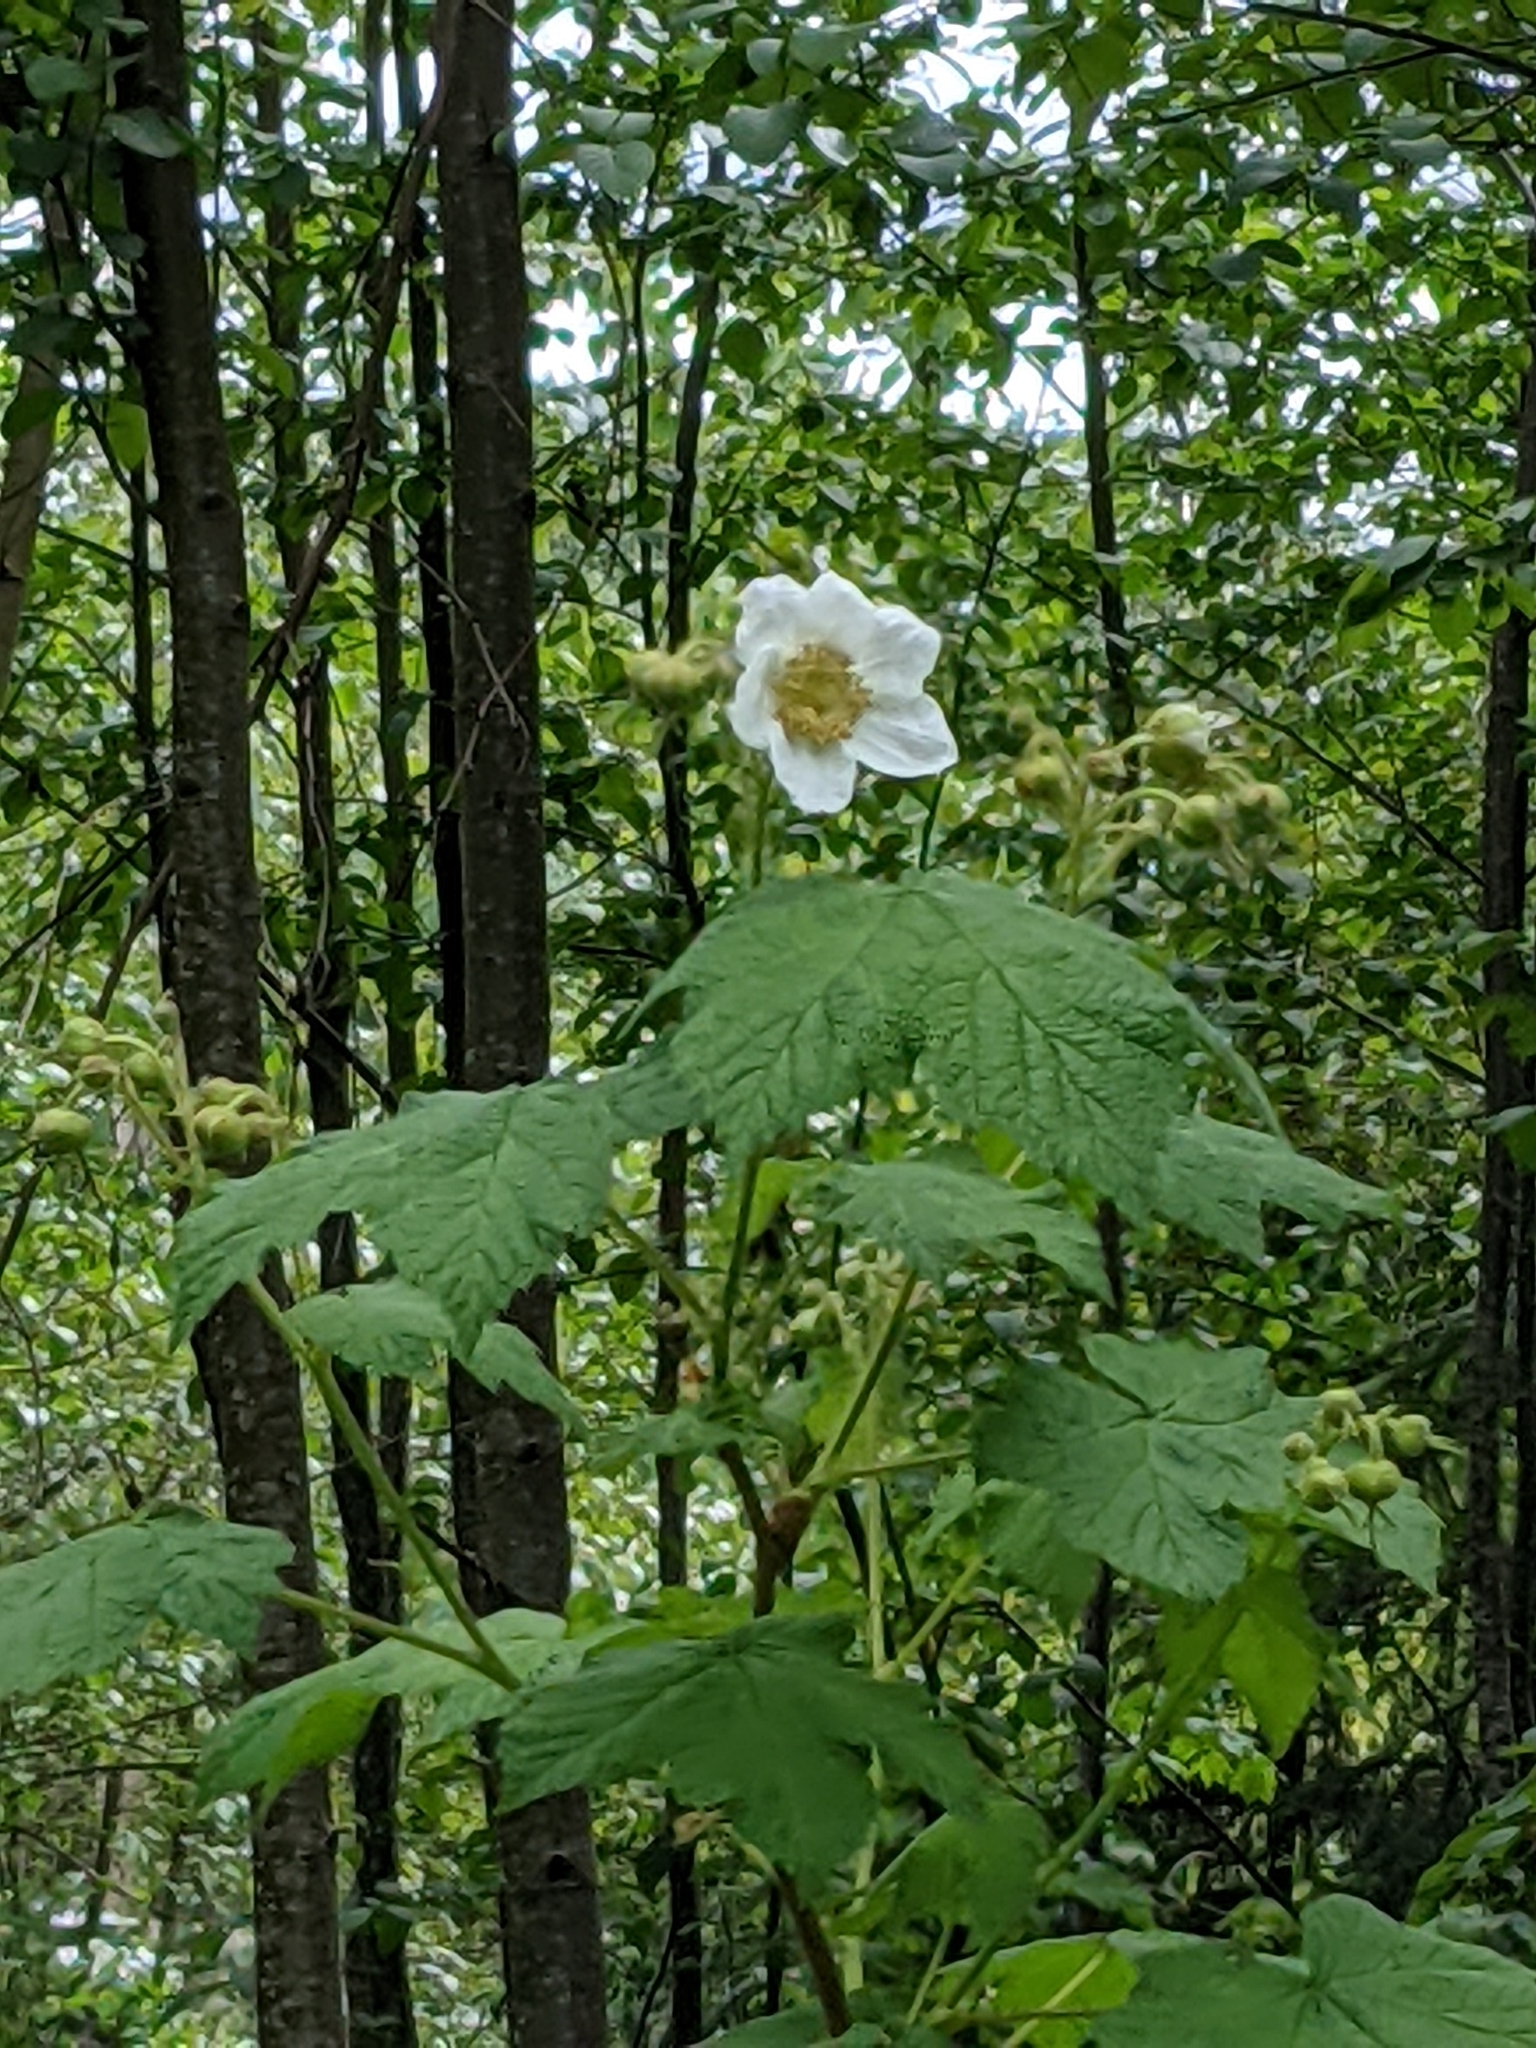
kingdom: Plantae
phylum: Tracheophyta
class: Magnoliopsida
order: Rosales
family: Rosaceae
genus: Rubus
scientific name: Rubus parviflorus
